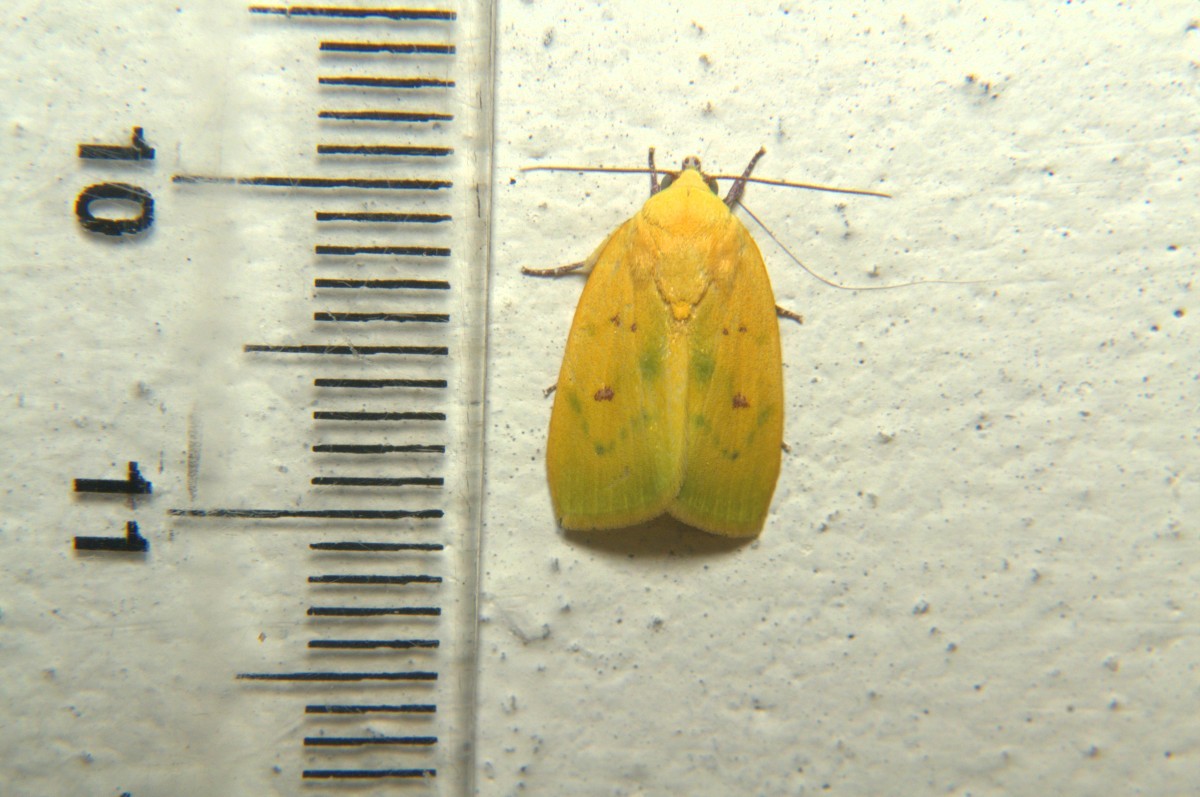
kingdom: Animalia
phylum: Arthropoda
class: Insecta
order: Lepidoptera
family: Nolidae
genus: Earias
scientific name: Earias flavida
